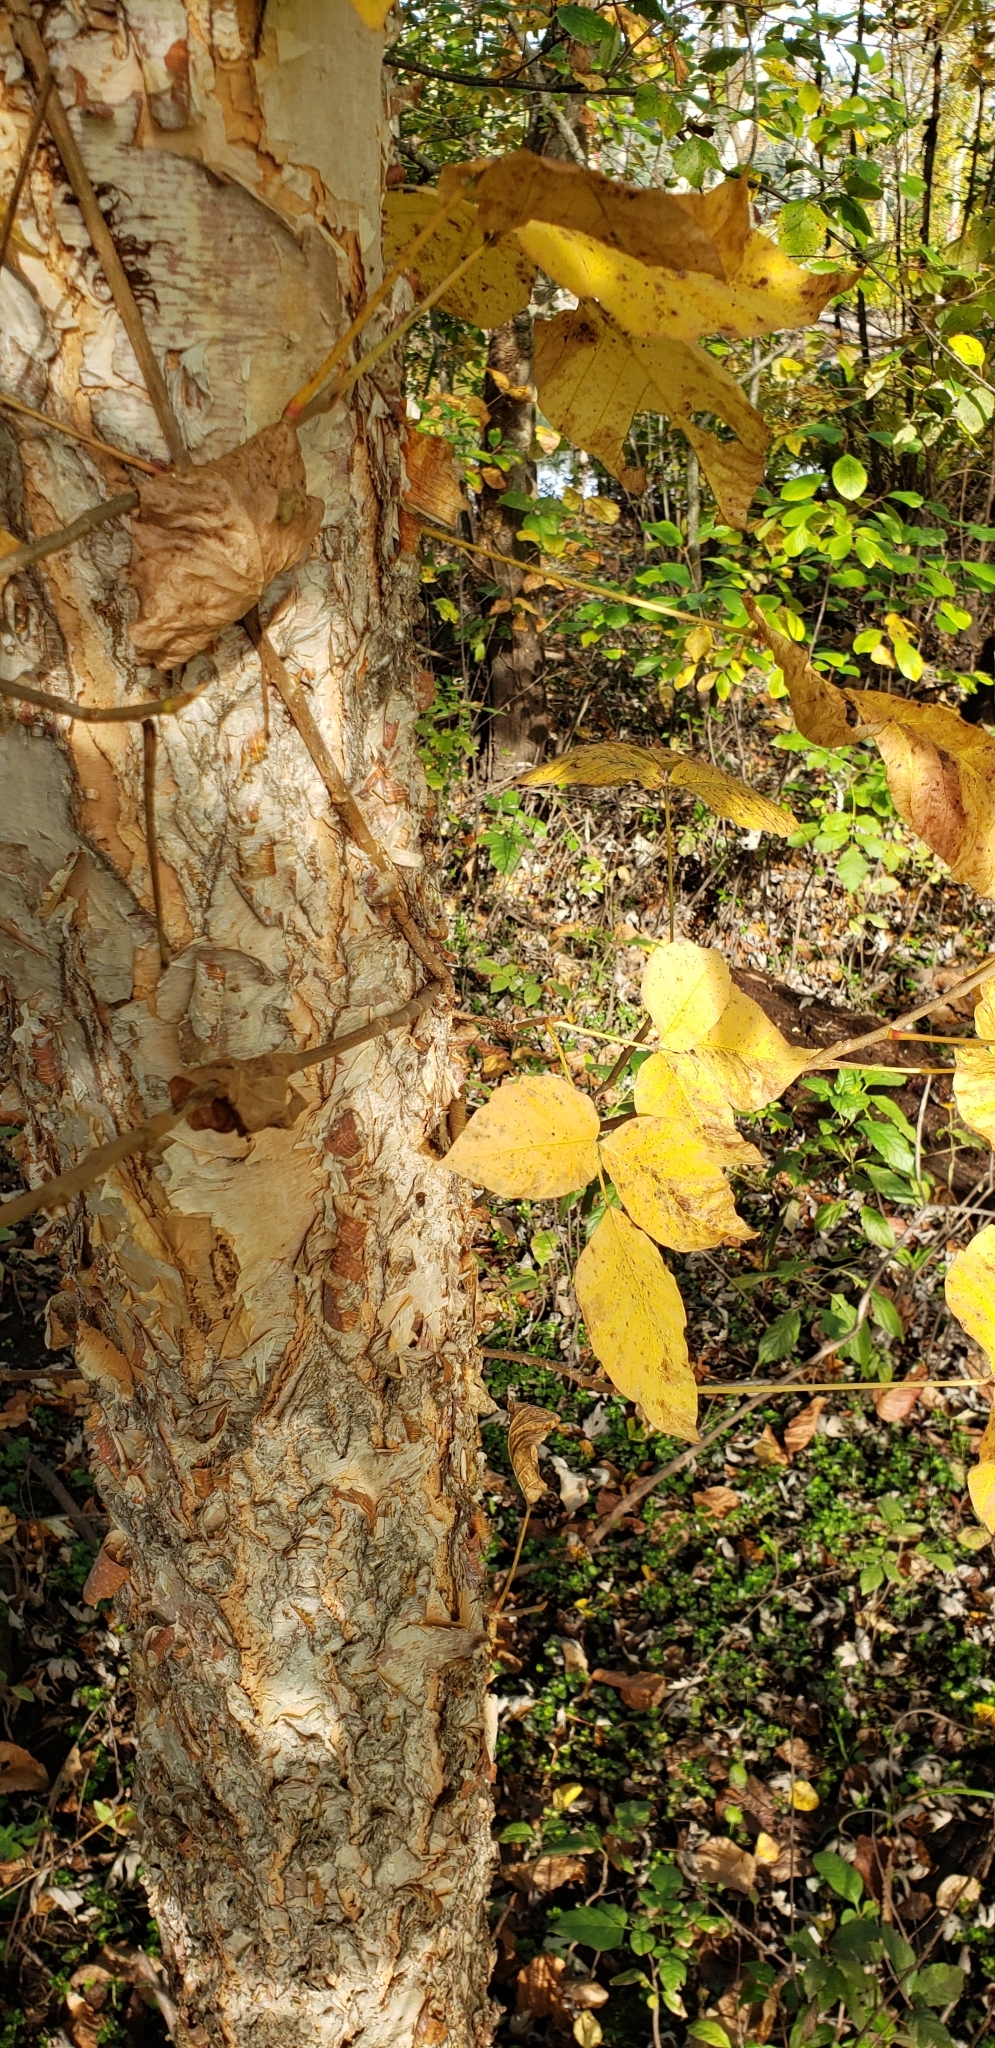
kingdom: Plantae
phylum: Tracheophyta
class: Magnoliopsida
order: Sapindales
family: Anacardiaceae
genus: Toxicodendron
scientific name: Toxicodendron radicans
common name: Poison ivy
